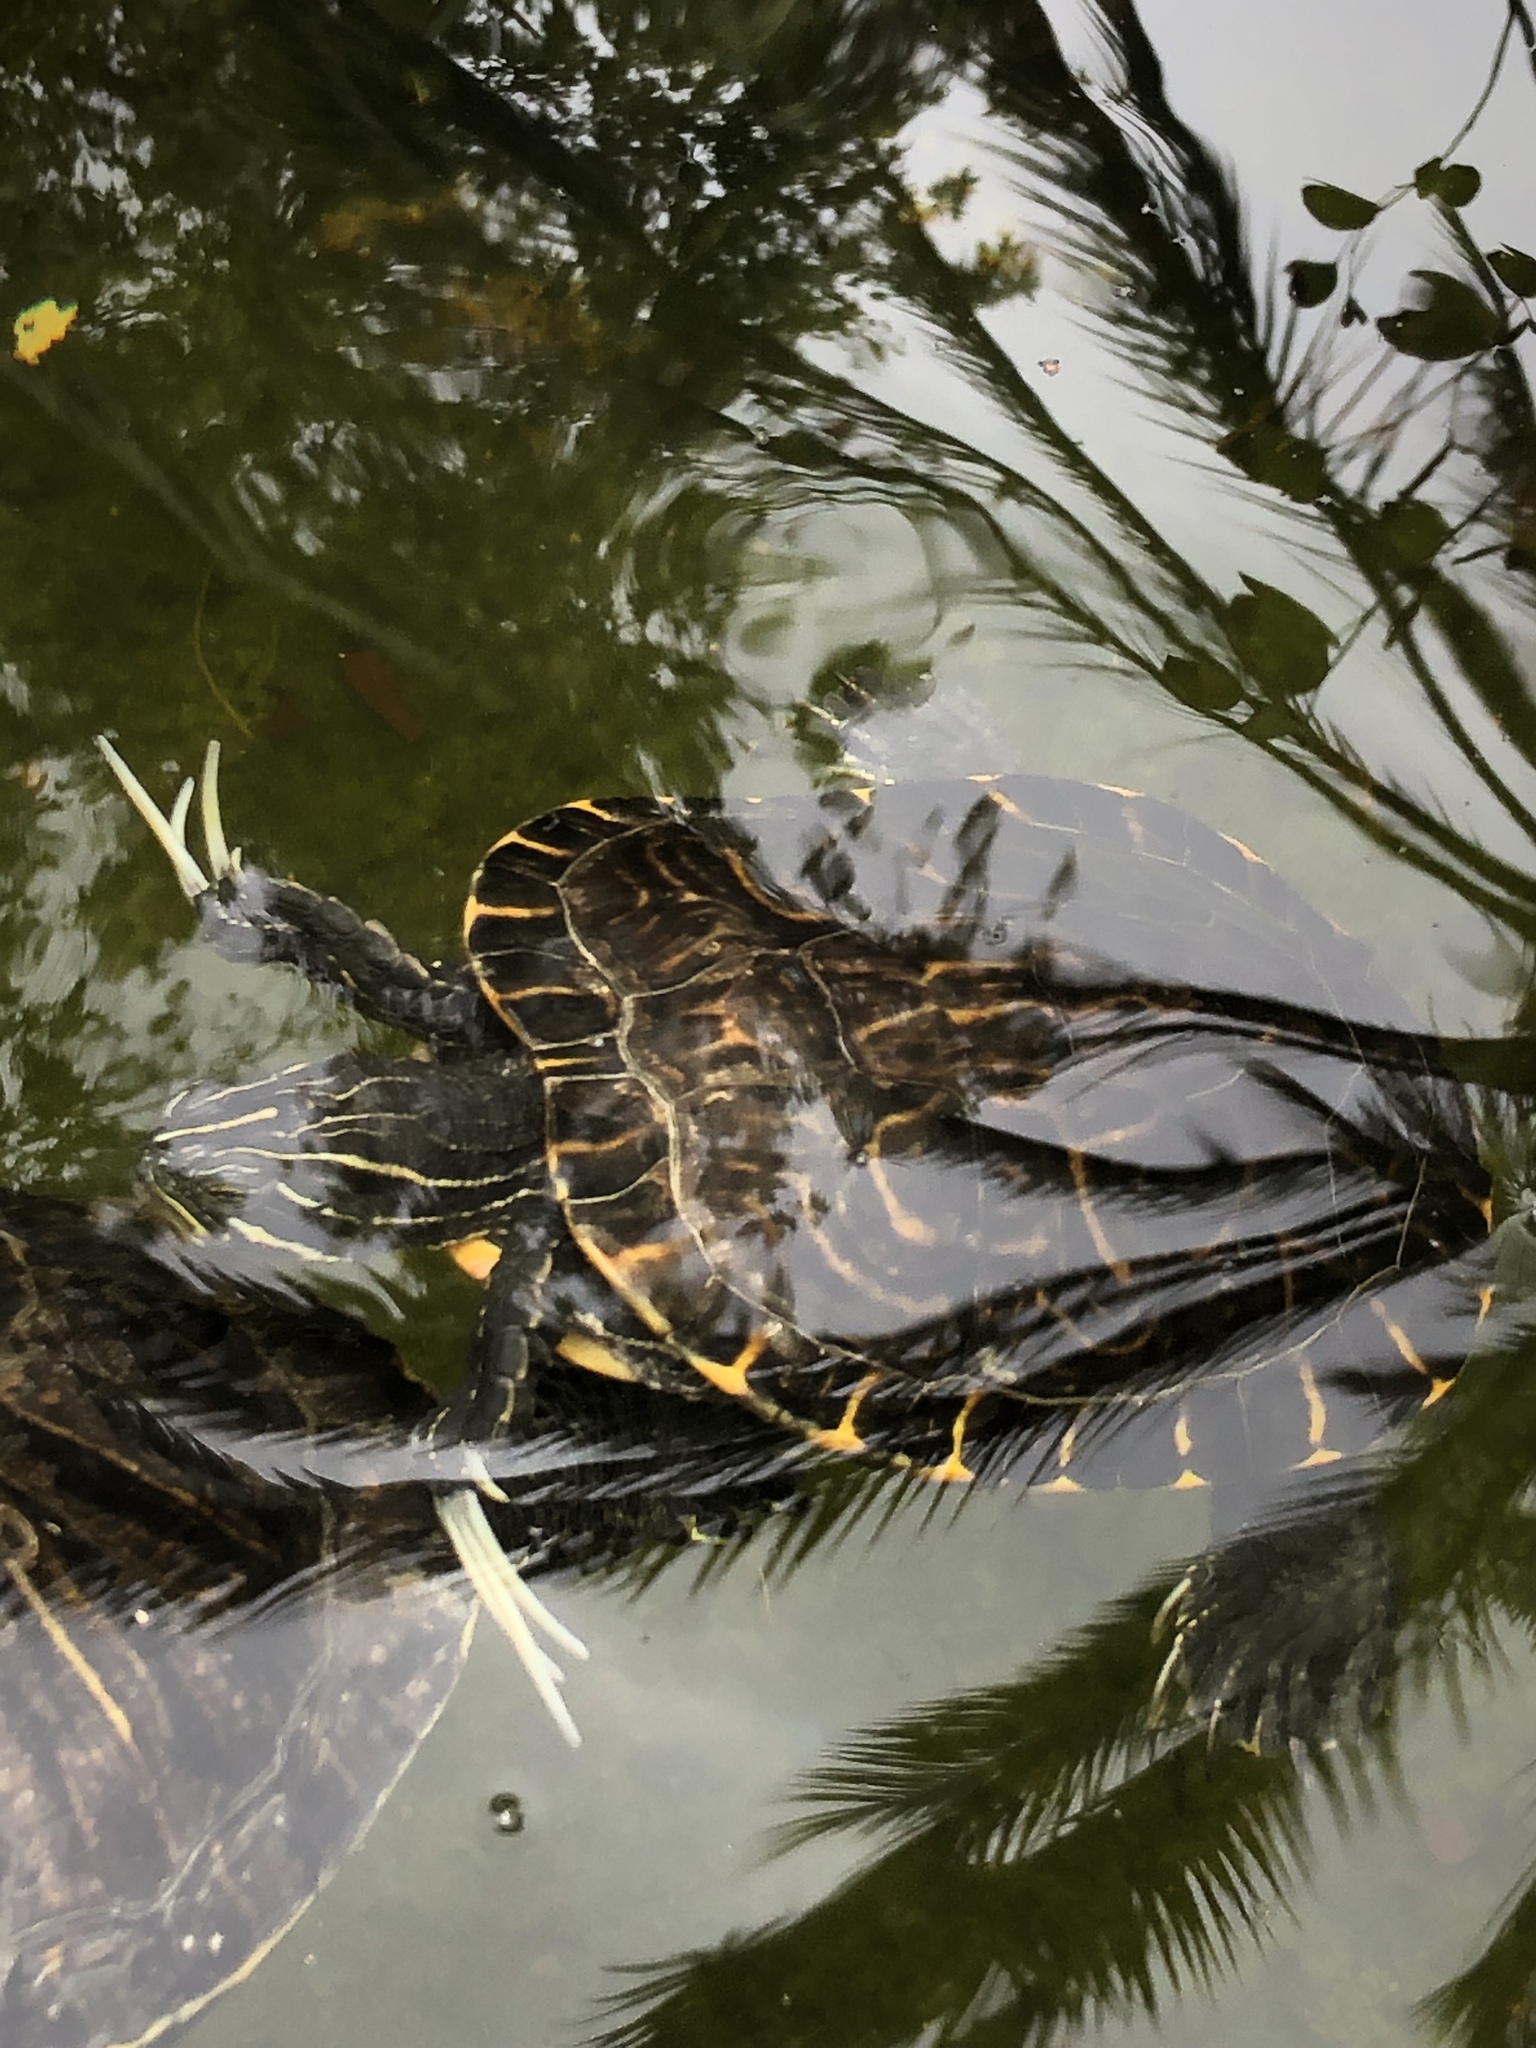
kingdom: Animalia
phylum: Chordata
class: Testudines
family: Emydidae
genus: Pseudemys
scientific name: Pseudemys concinna
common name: Eastern river cooter
